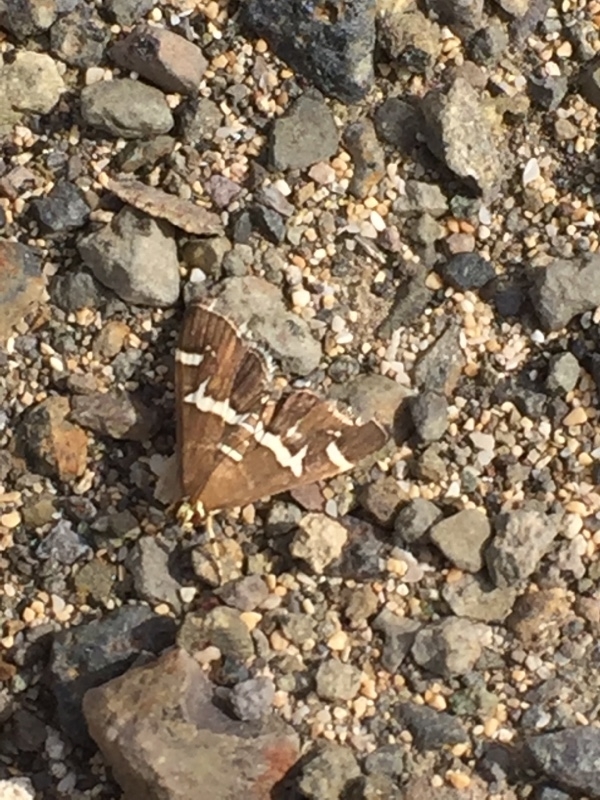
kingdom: Animalia
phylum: Arthropoda
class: Insecta
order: Lepidoptera
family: Crambidae
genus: Spoladea
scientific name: Spoladea recurvalis
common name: Beet webworm moth
